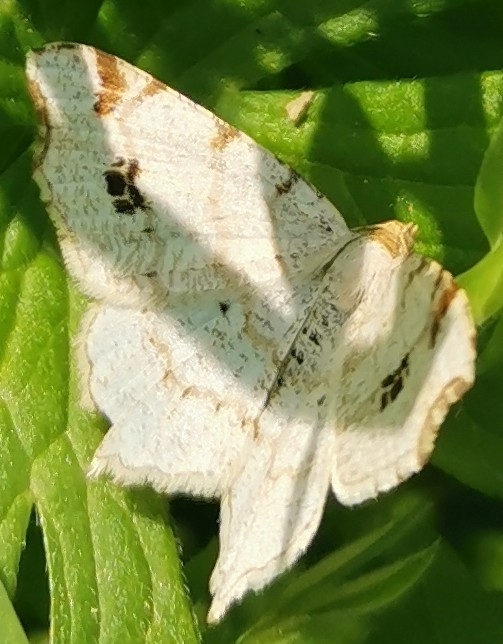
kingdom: Animalia
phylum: Arthropoda
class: Insecta
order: Lepidoptera
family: Geometridae
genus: Macaria
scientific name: Macaria notata
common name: Peacock moth
